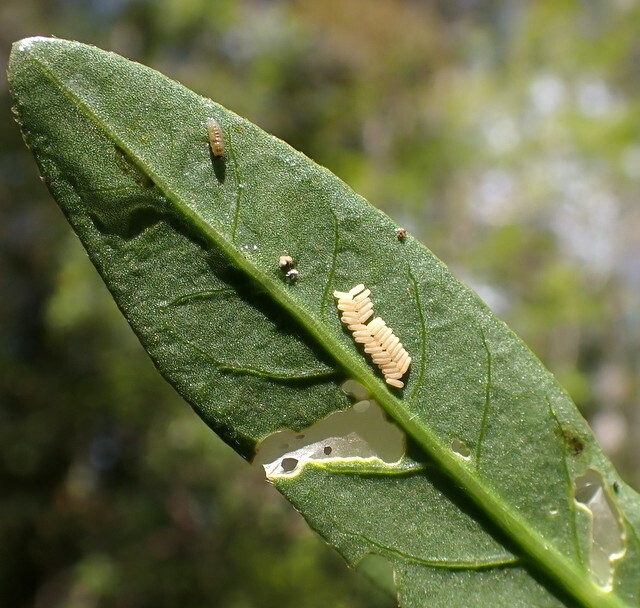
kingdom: Animalia
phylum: Arthropoda
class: Insecta
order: Coleoptera
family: Chrysomelidae
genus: Agasicles
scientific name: Agasicles hygrophila
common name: Alligatorweed flea beetle
